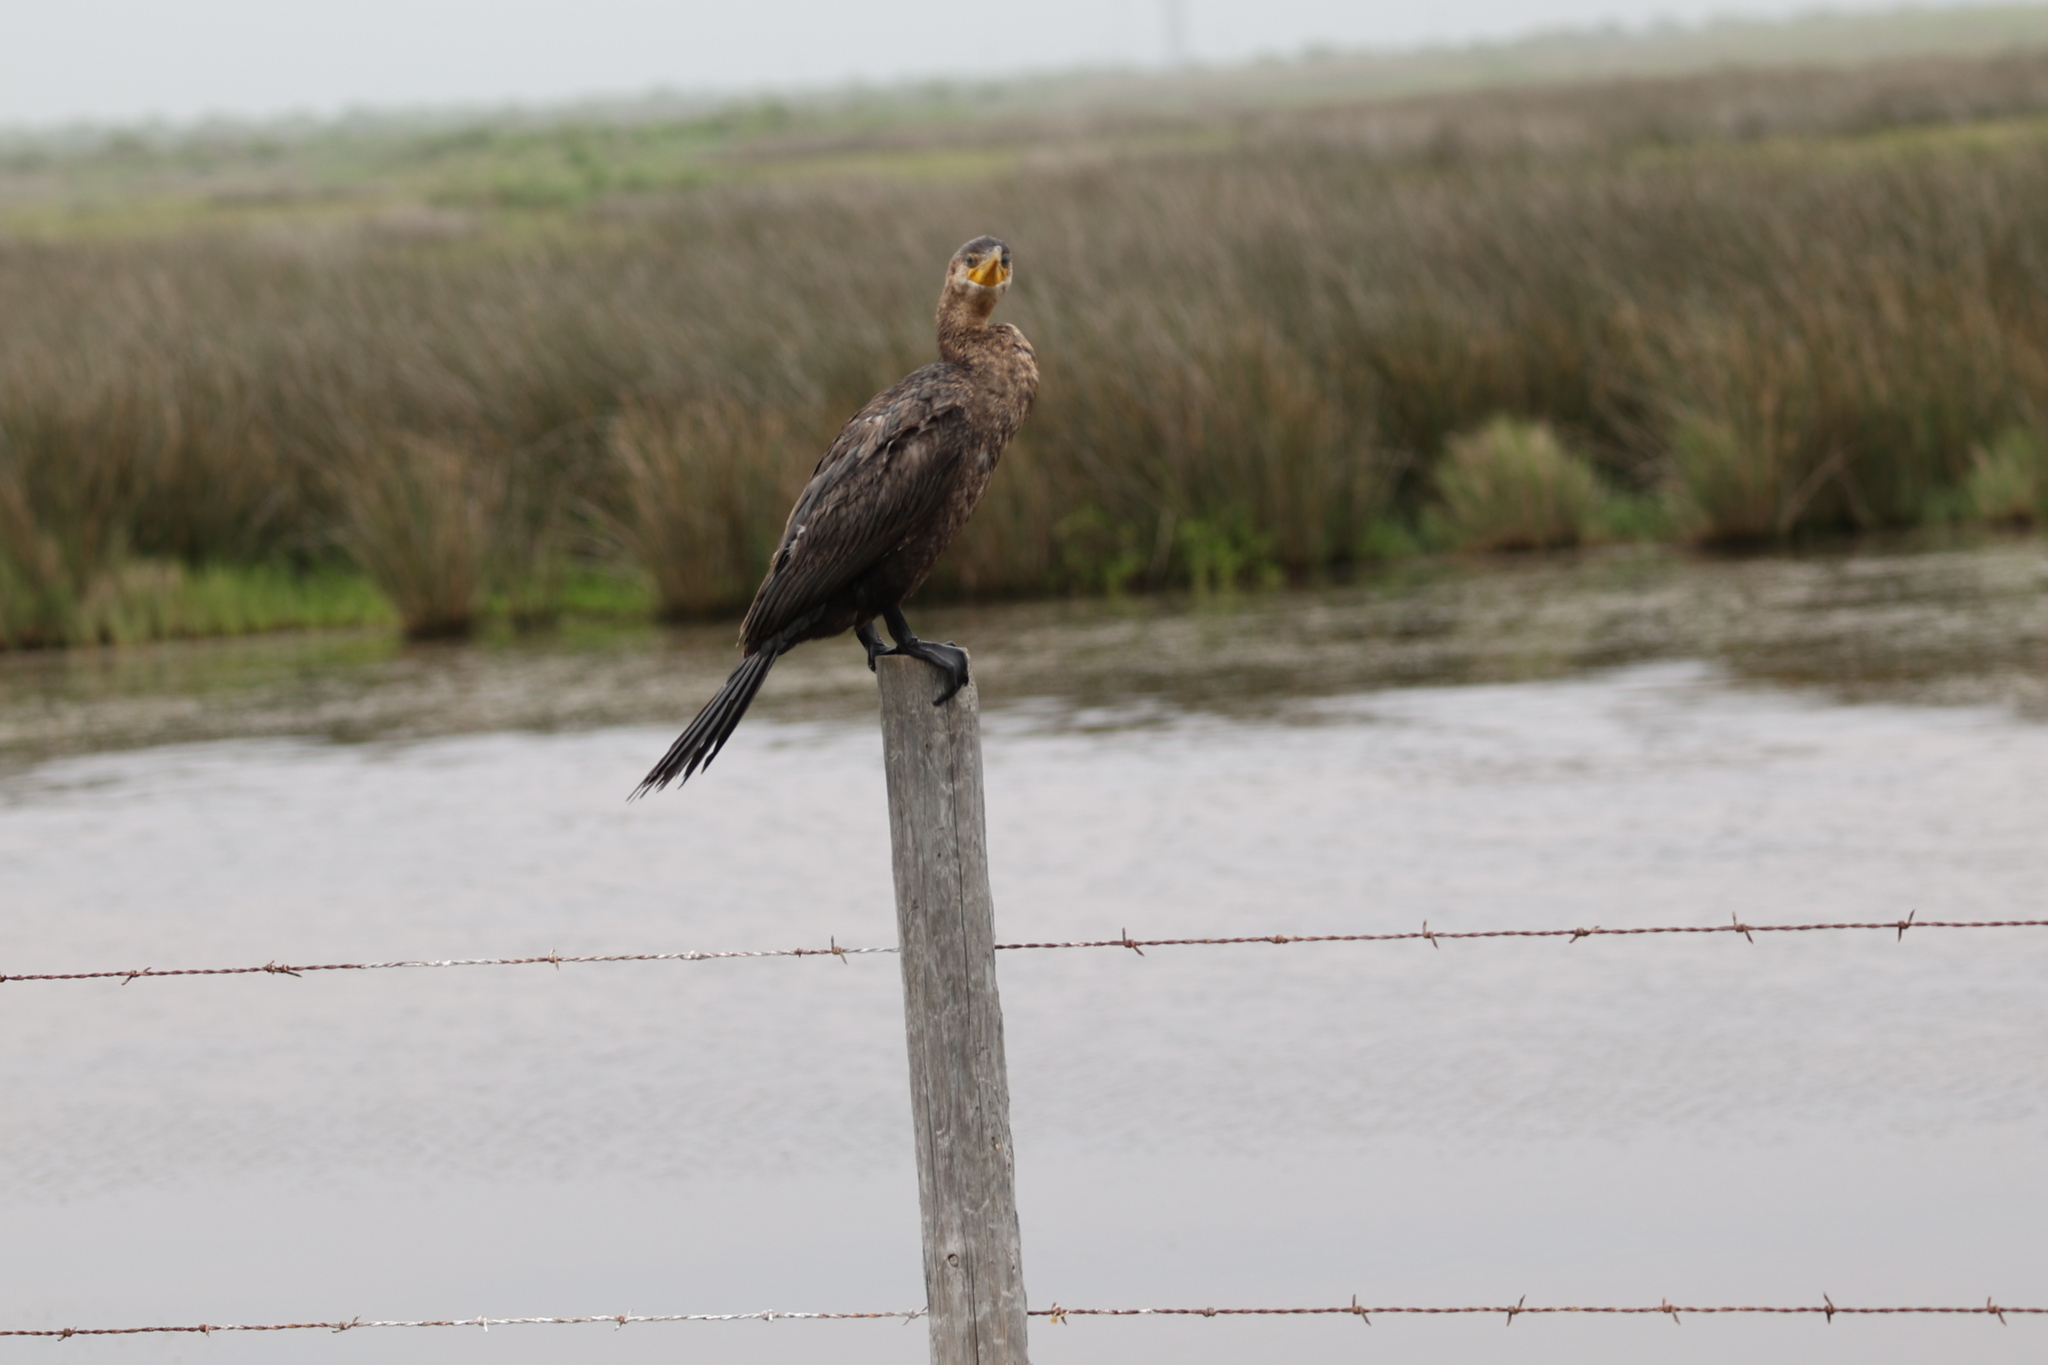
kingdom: Animalia
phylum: Chordata
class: Aves
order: Suliformes
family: Phalacrocoracidae
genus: Phalacrocorax
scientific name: Phalacrocorax brasilianus
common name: Neotropic cormorant
